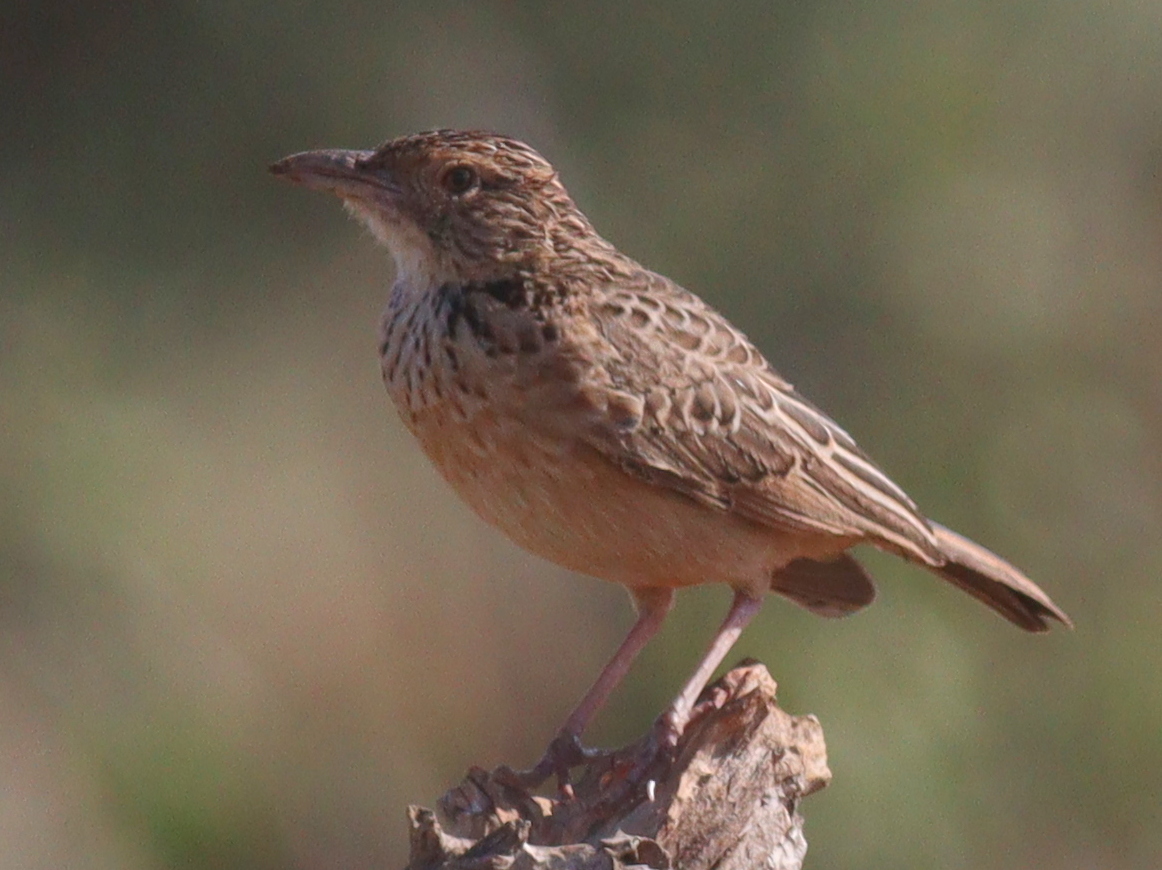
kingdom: Animalia
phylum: Chordata
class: Aves
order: Passeriformes
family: Alaudidae
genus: Mirafra
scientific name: Mirafra hypermetra
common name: Red-winged lark
